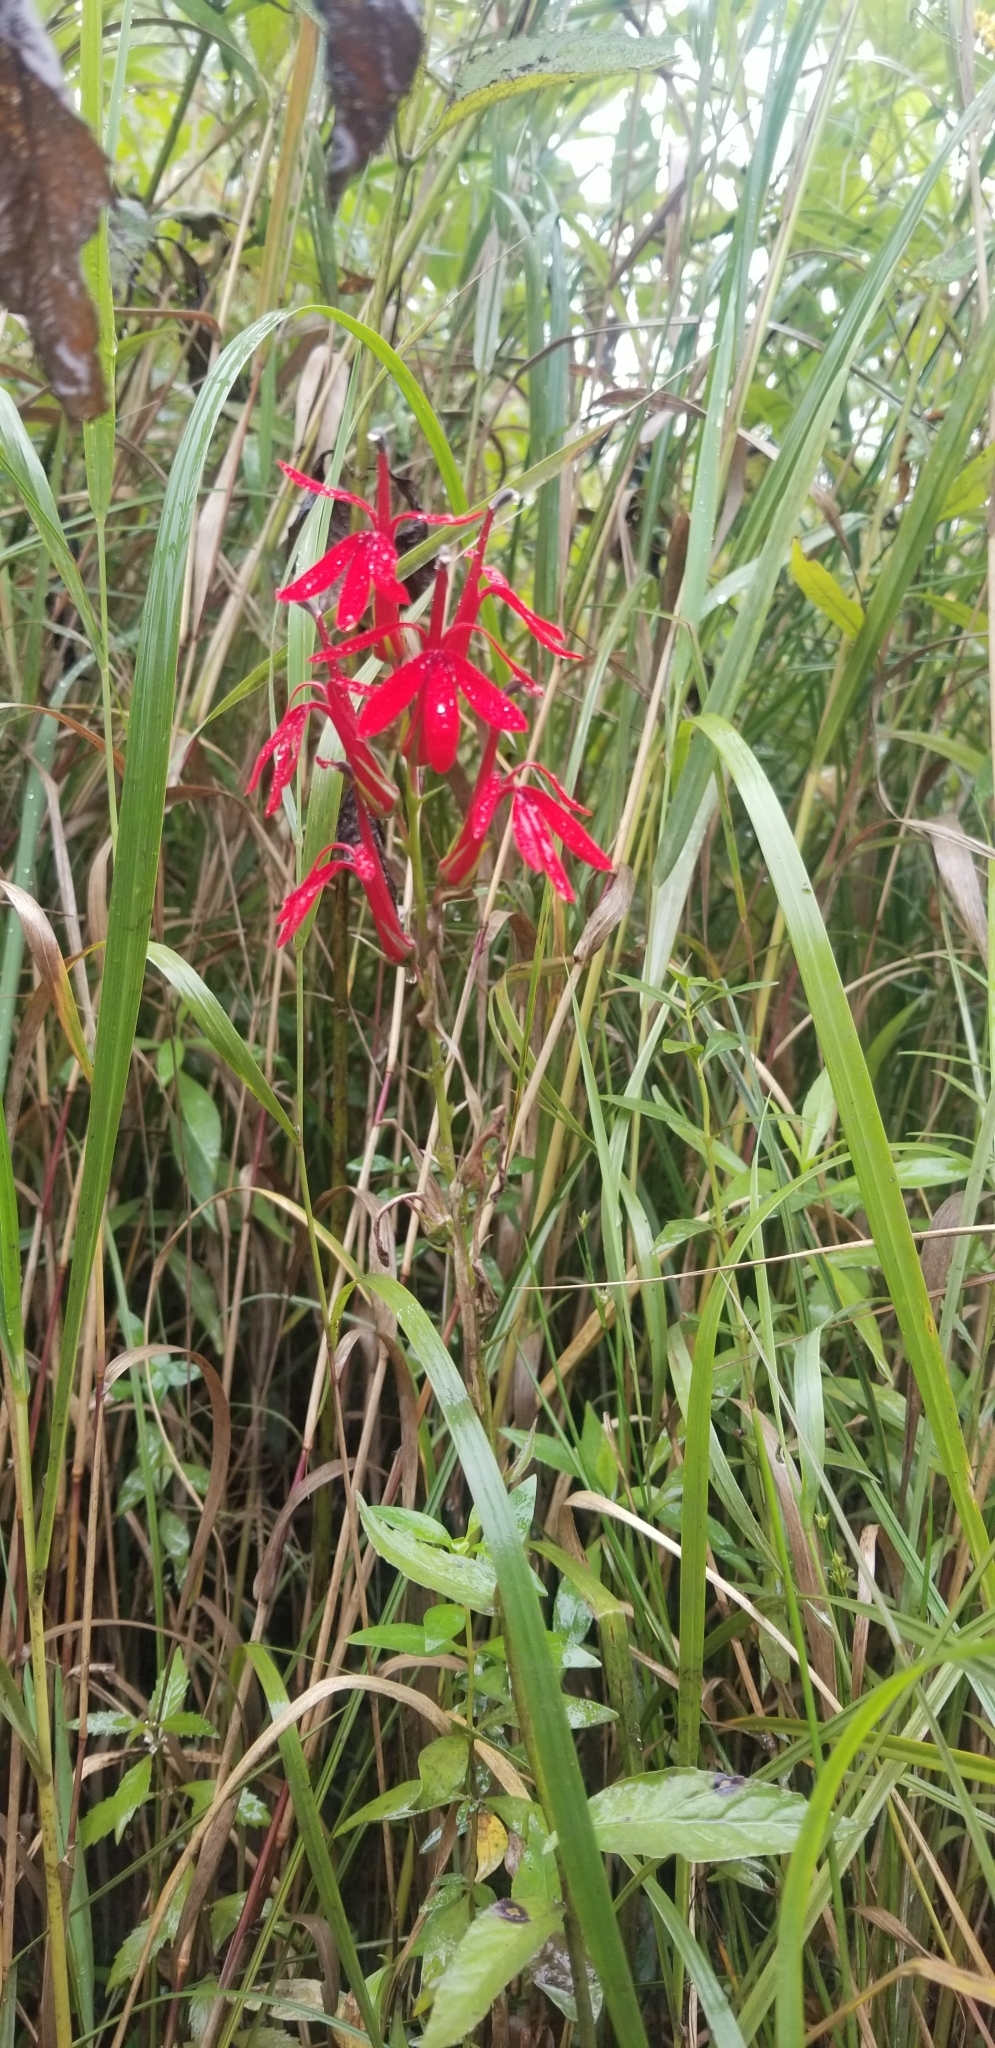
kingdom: Plantae
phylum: Tracheophyta
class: Magnoliopsida
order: Asterales
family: Campanulaceae
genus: Lobelia
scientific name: Lobelia cardinalis
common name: Cardinal flower
